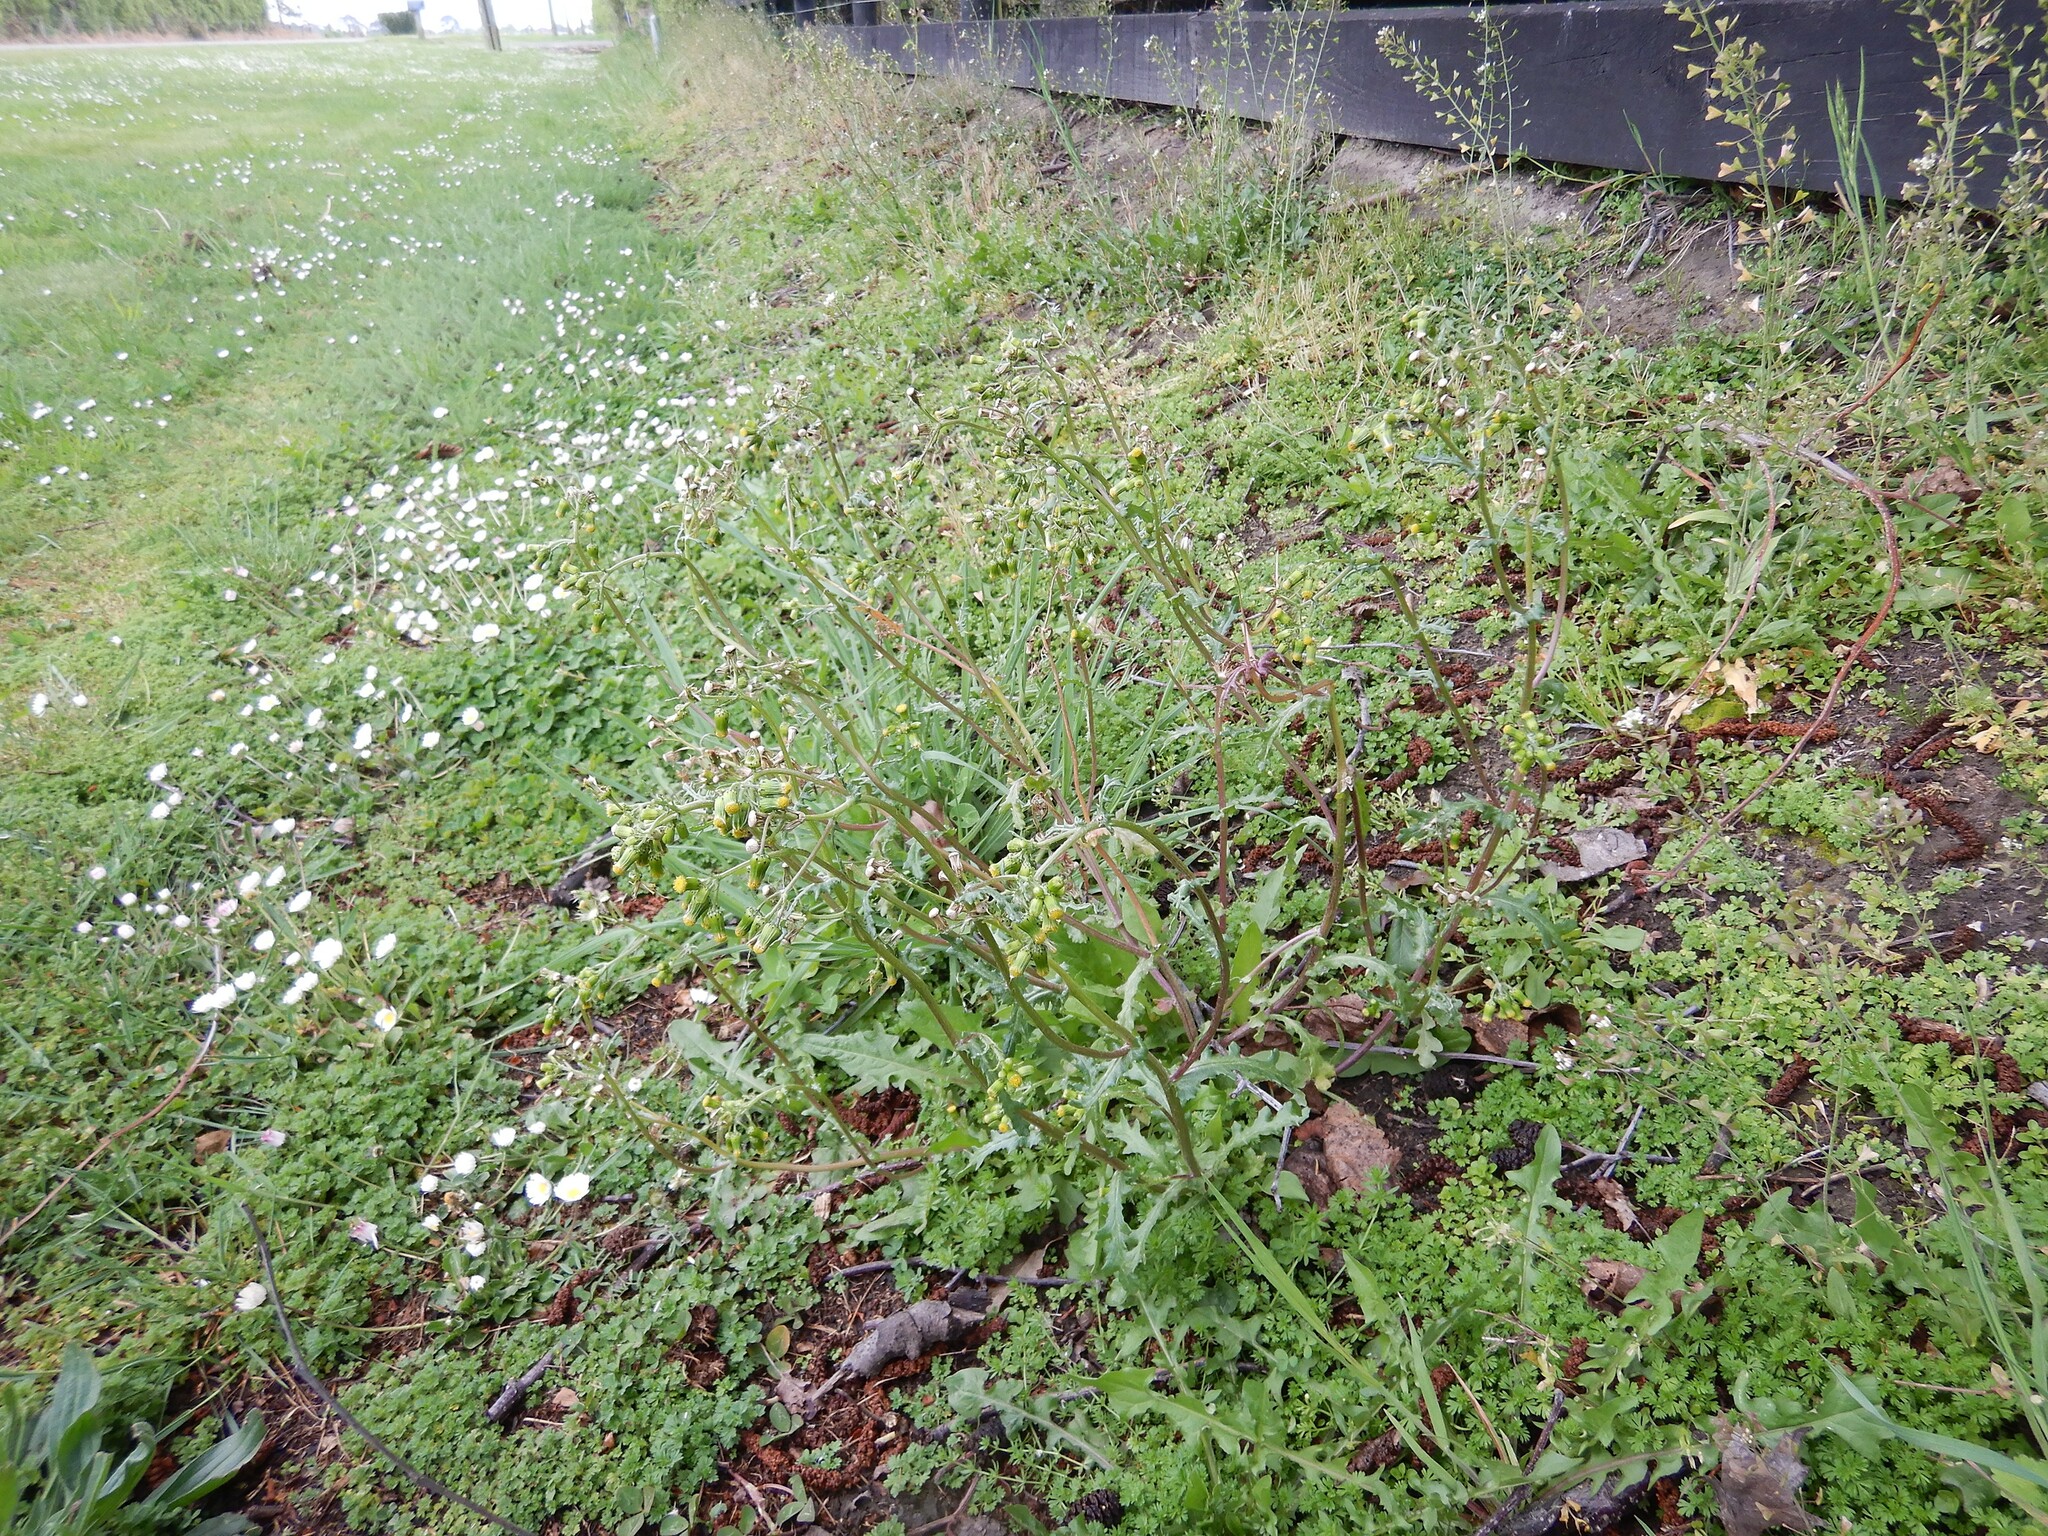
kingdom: Plantae
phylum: Tracheophyta
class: Magnoliopsida
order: Asterales
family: Asteraceae
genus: Senecio
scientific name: Senecio vulgaris
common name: Old-man-in-the-spring
